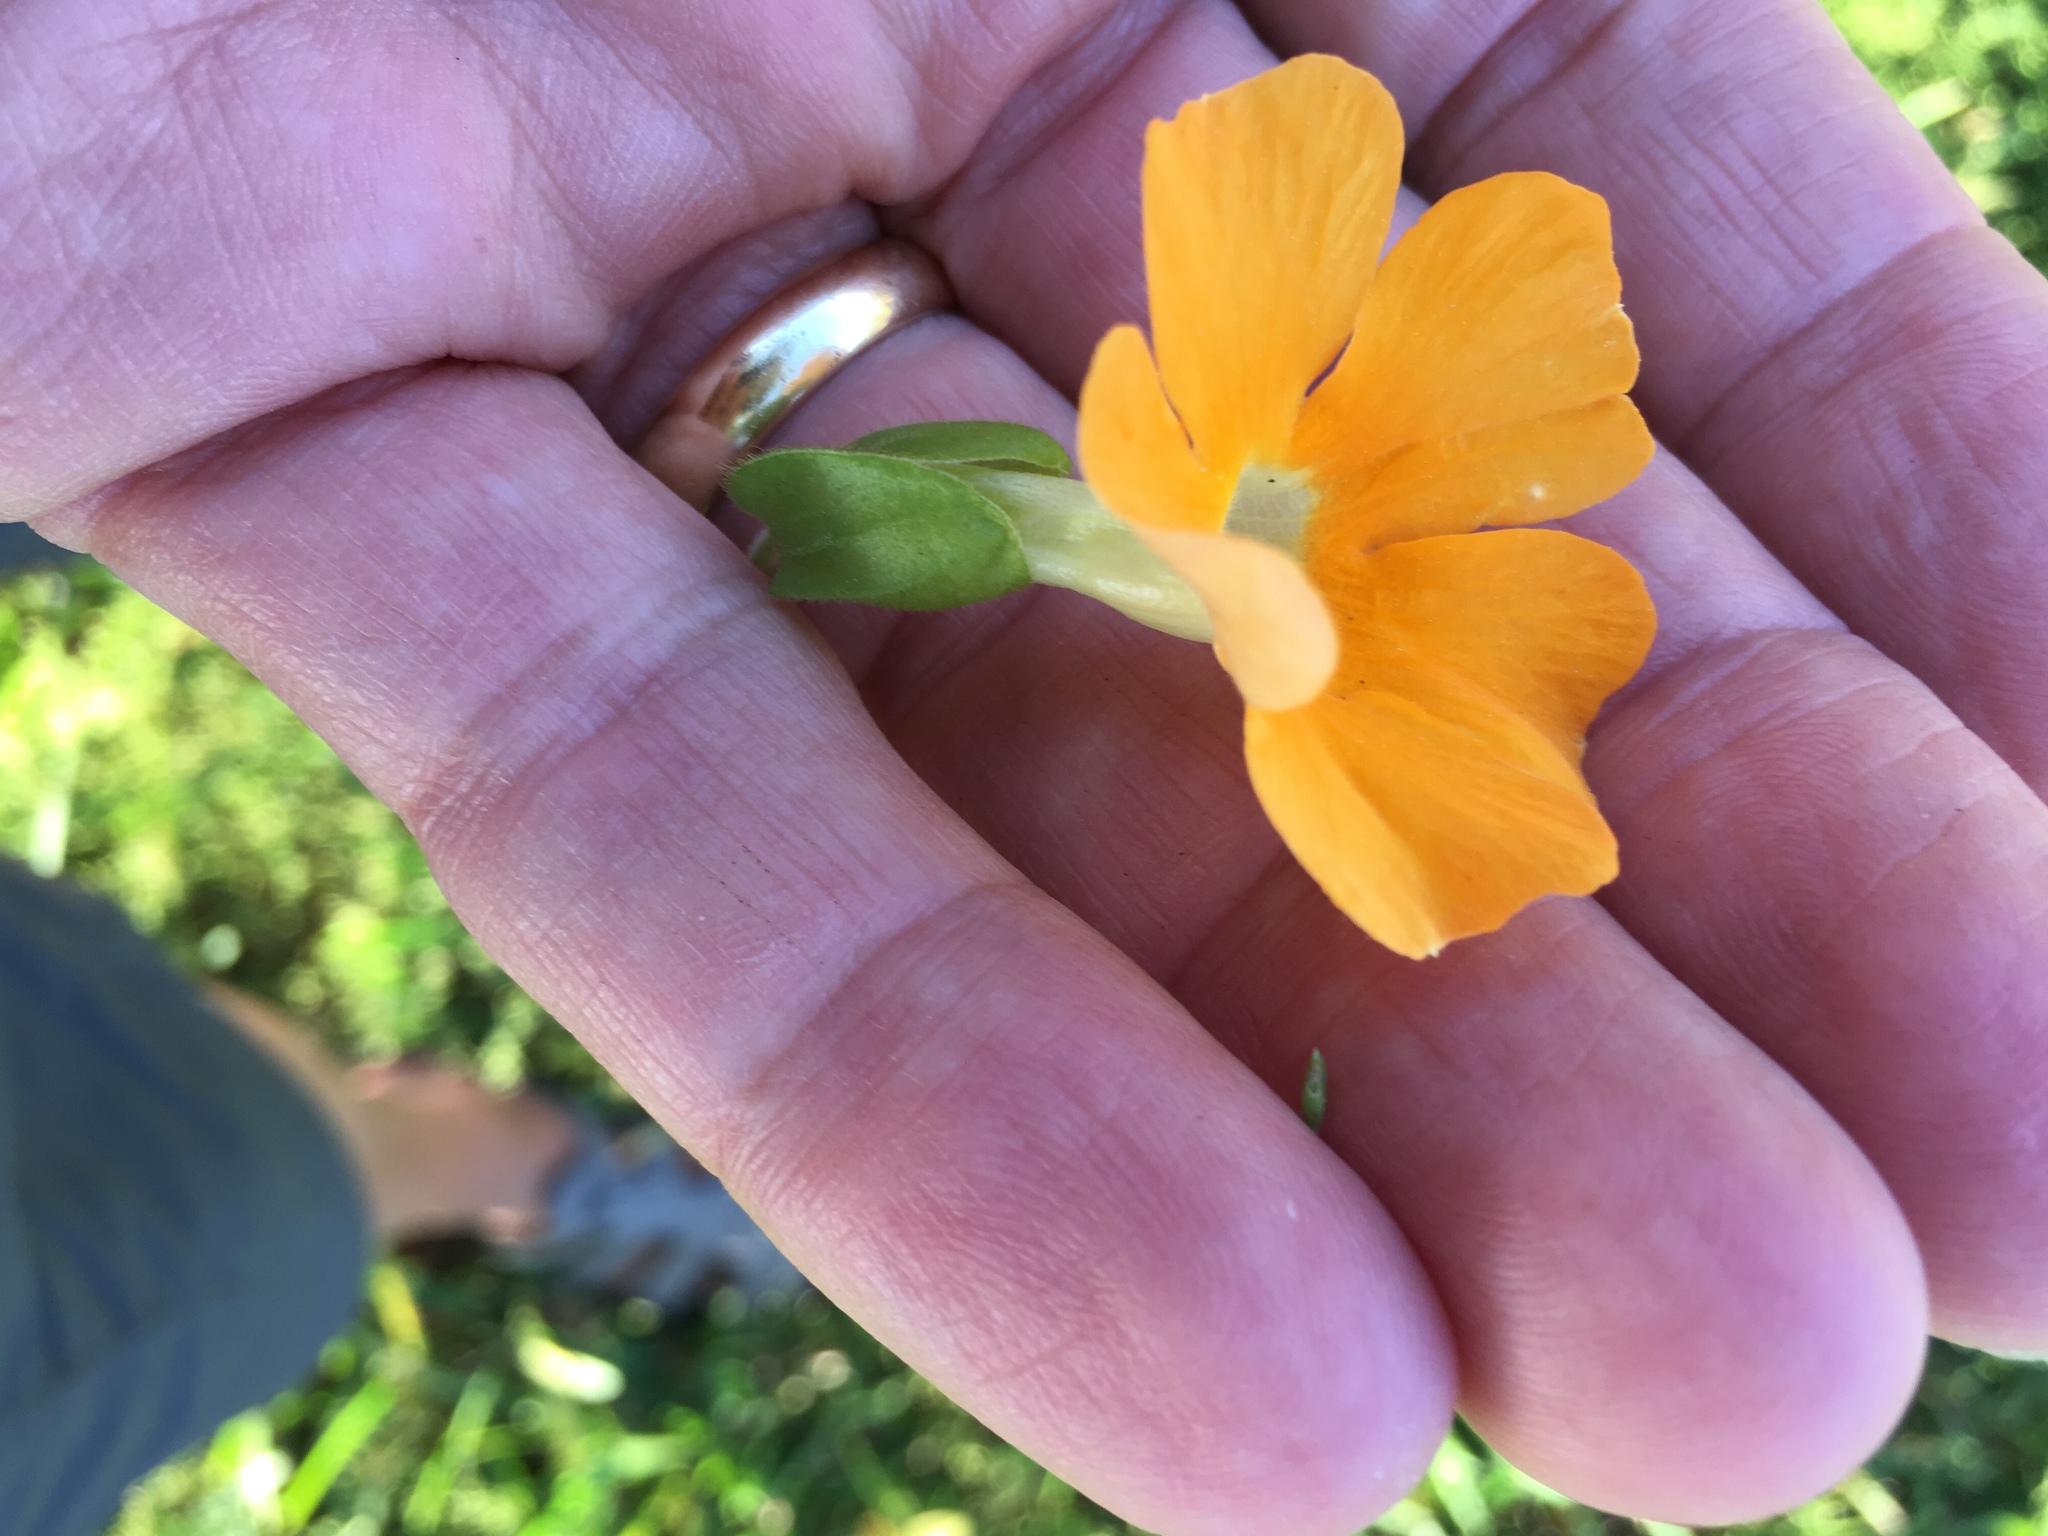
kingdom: Plantae
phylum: Tracheophyta
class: Magnoliopsida
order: Lamiales
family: Acanthaceae
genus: Thunbergia
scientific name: Thunbergia alata
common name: Blackeyed susan vine
